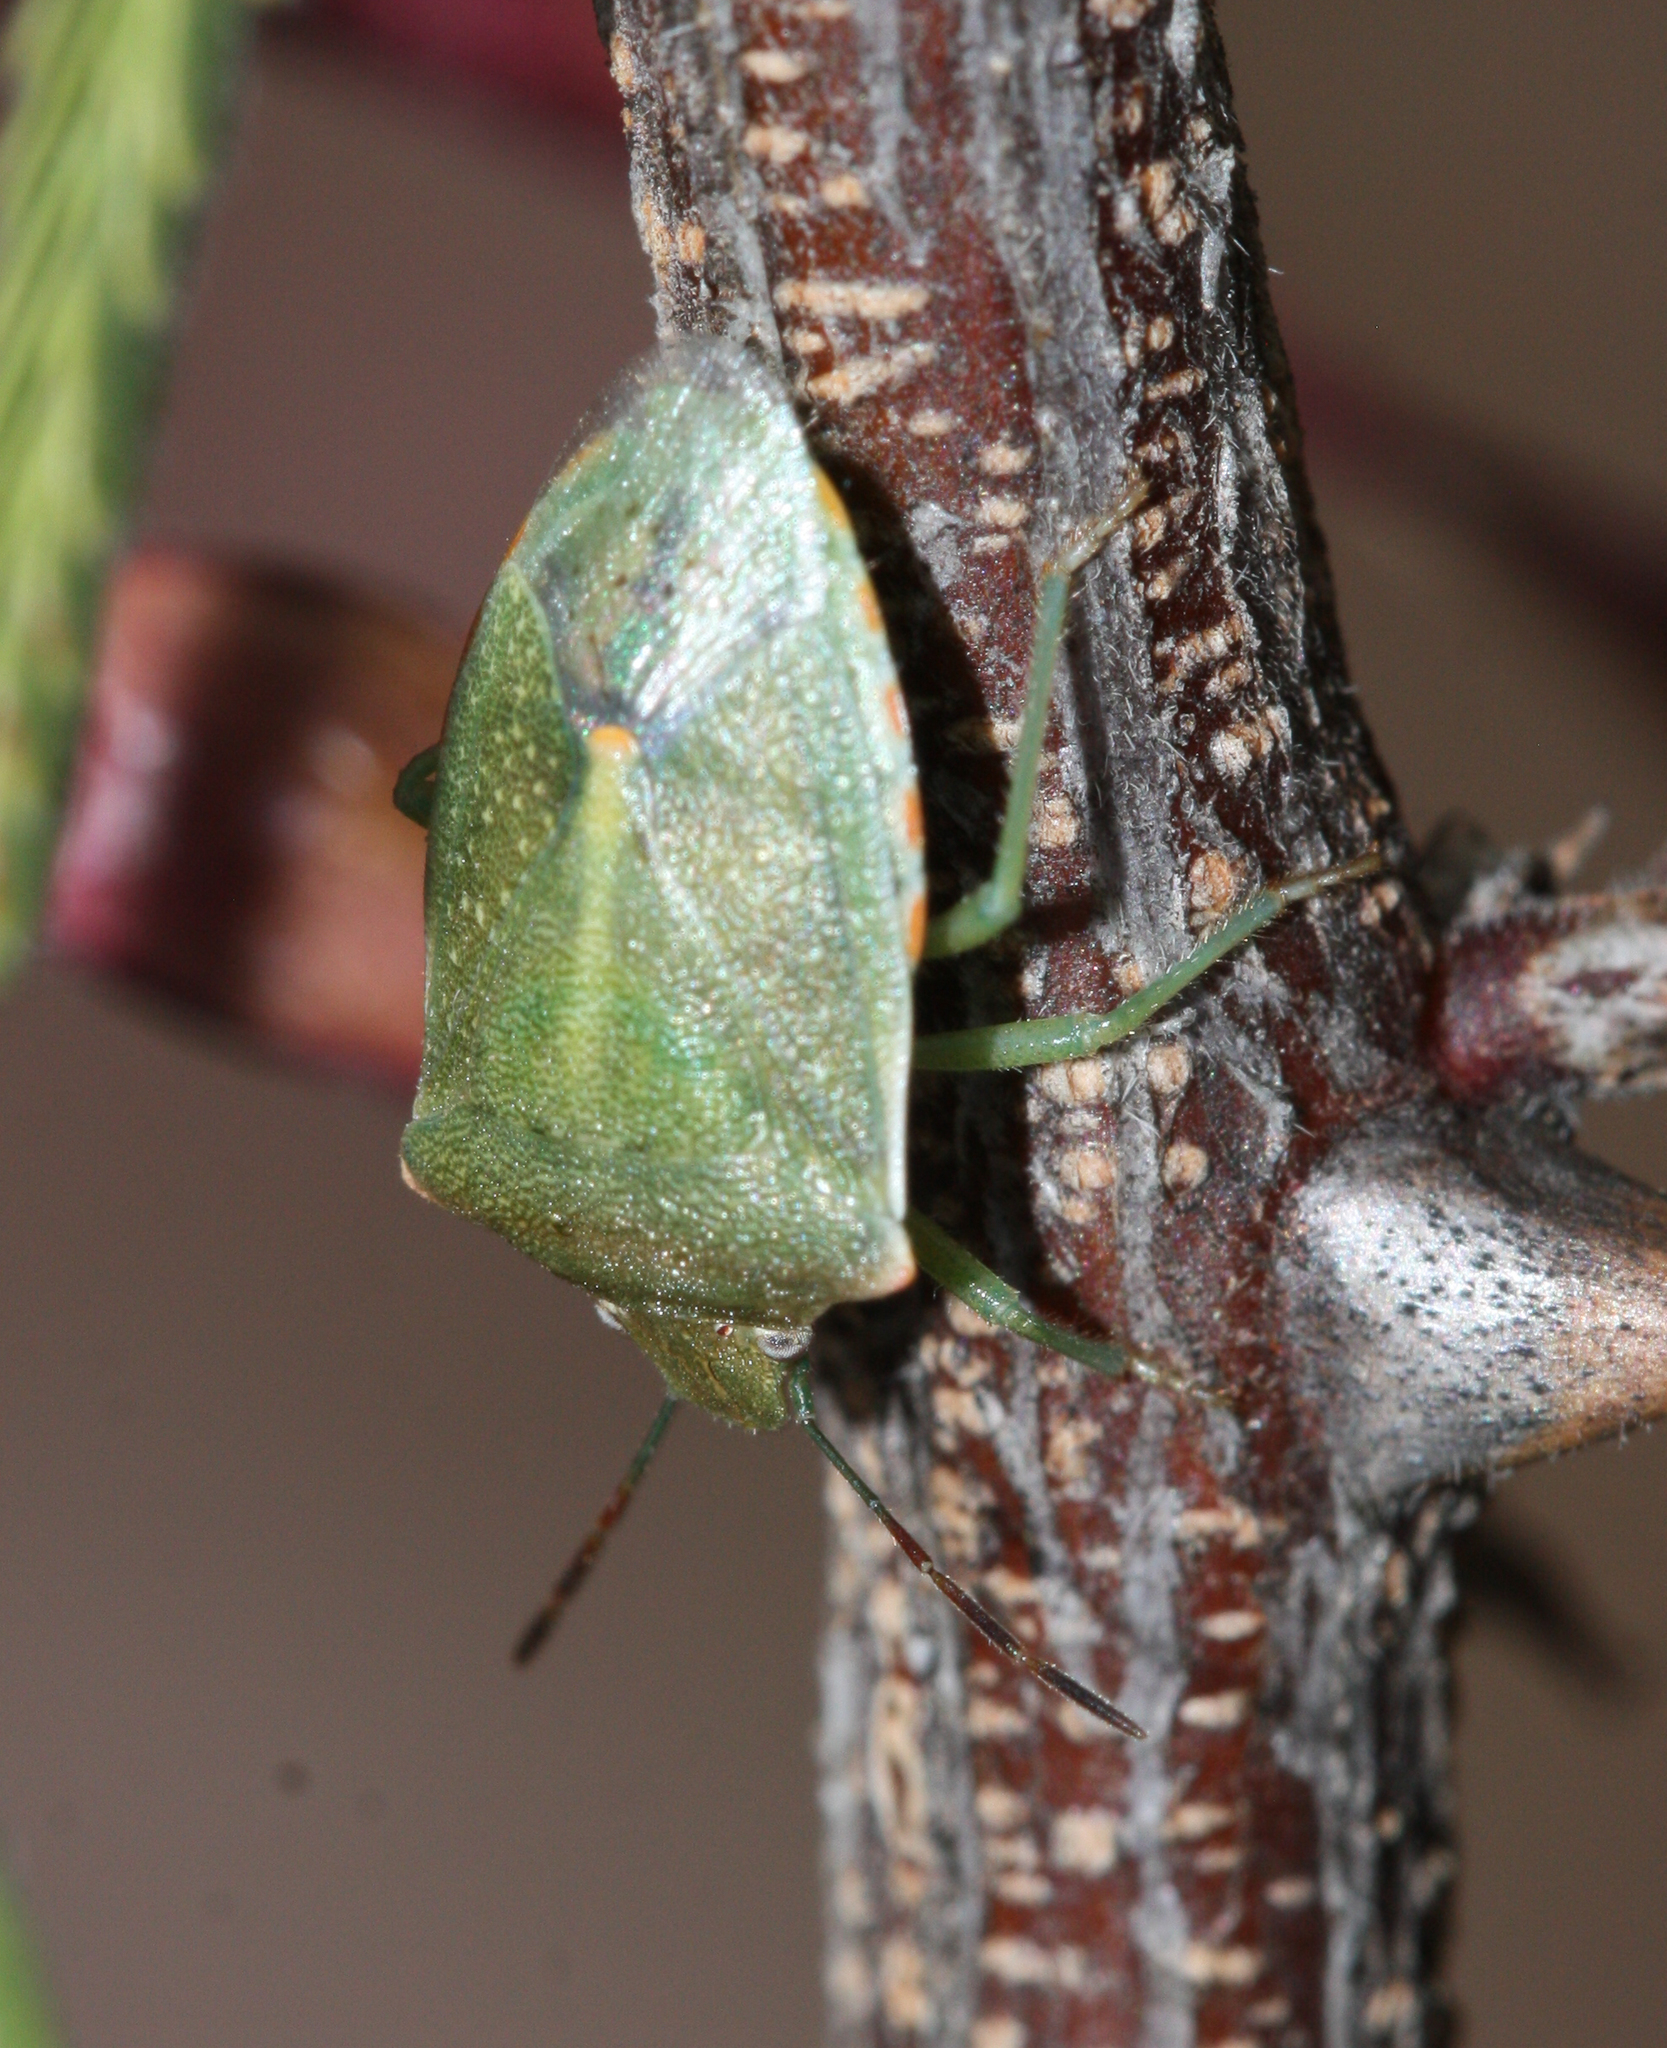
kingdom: Animalia
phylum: Arthropoda
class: Insecta
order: Hemiptera
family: Pentatomidae
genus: Thyanta
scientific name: Thyanta accerra
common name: Stink bug
